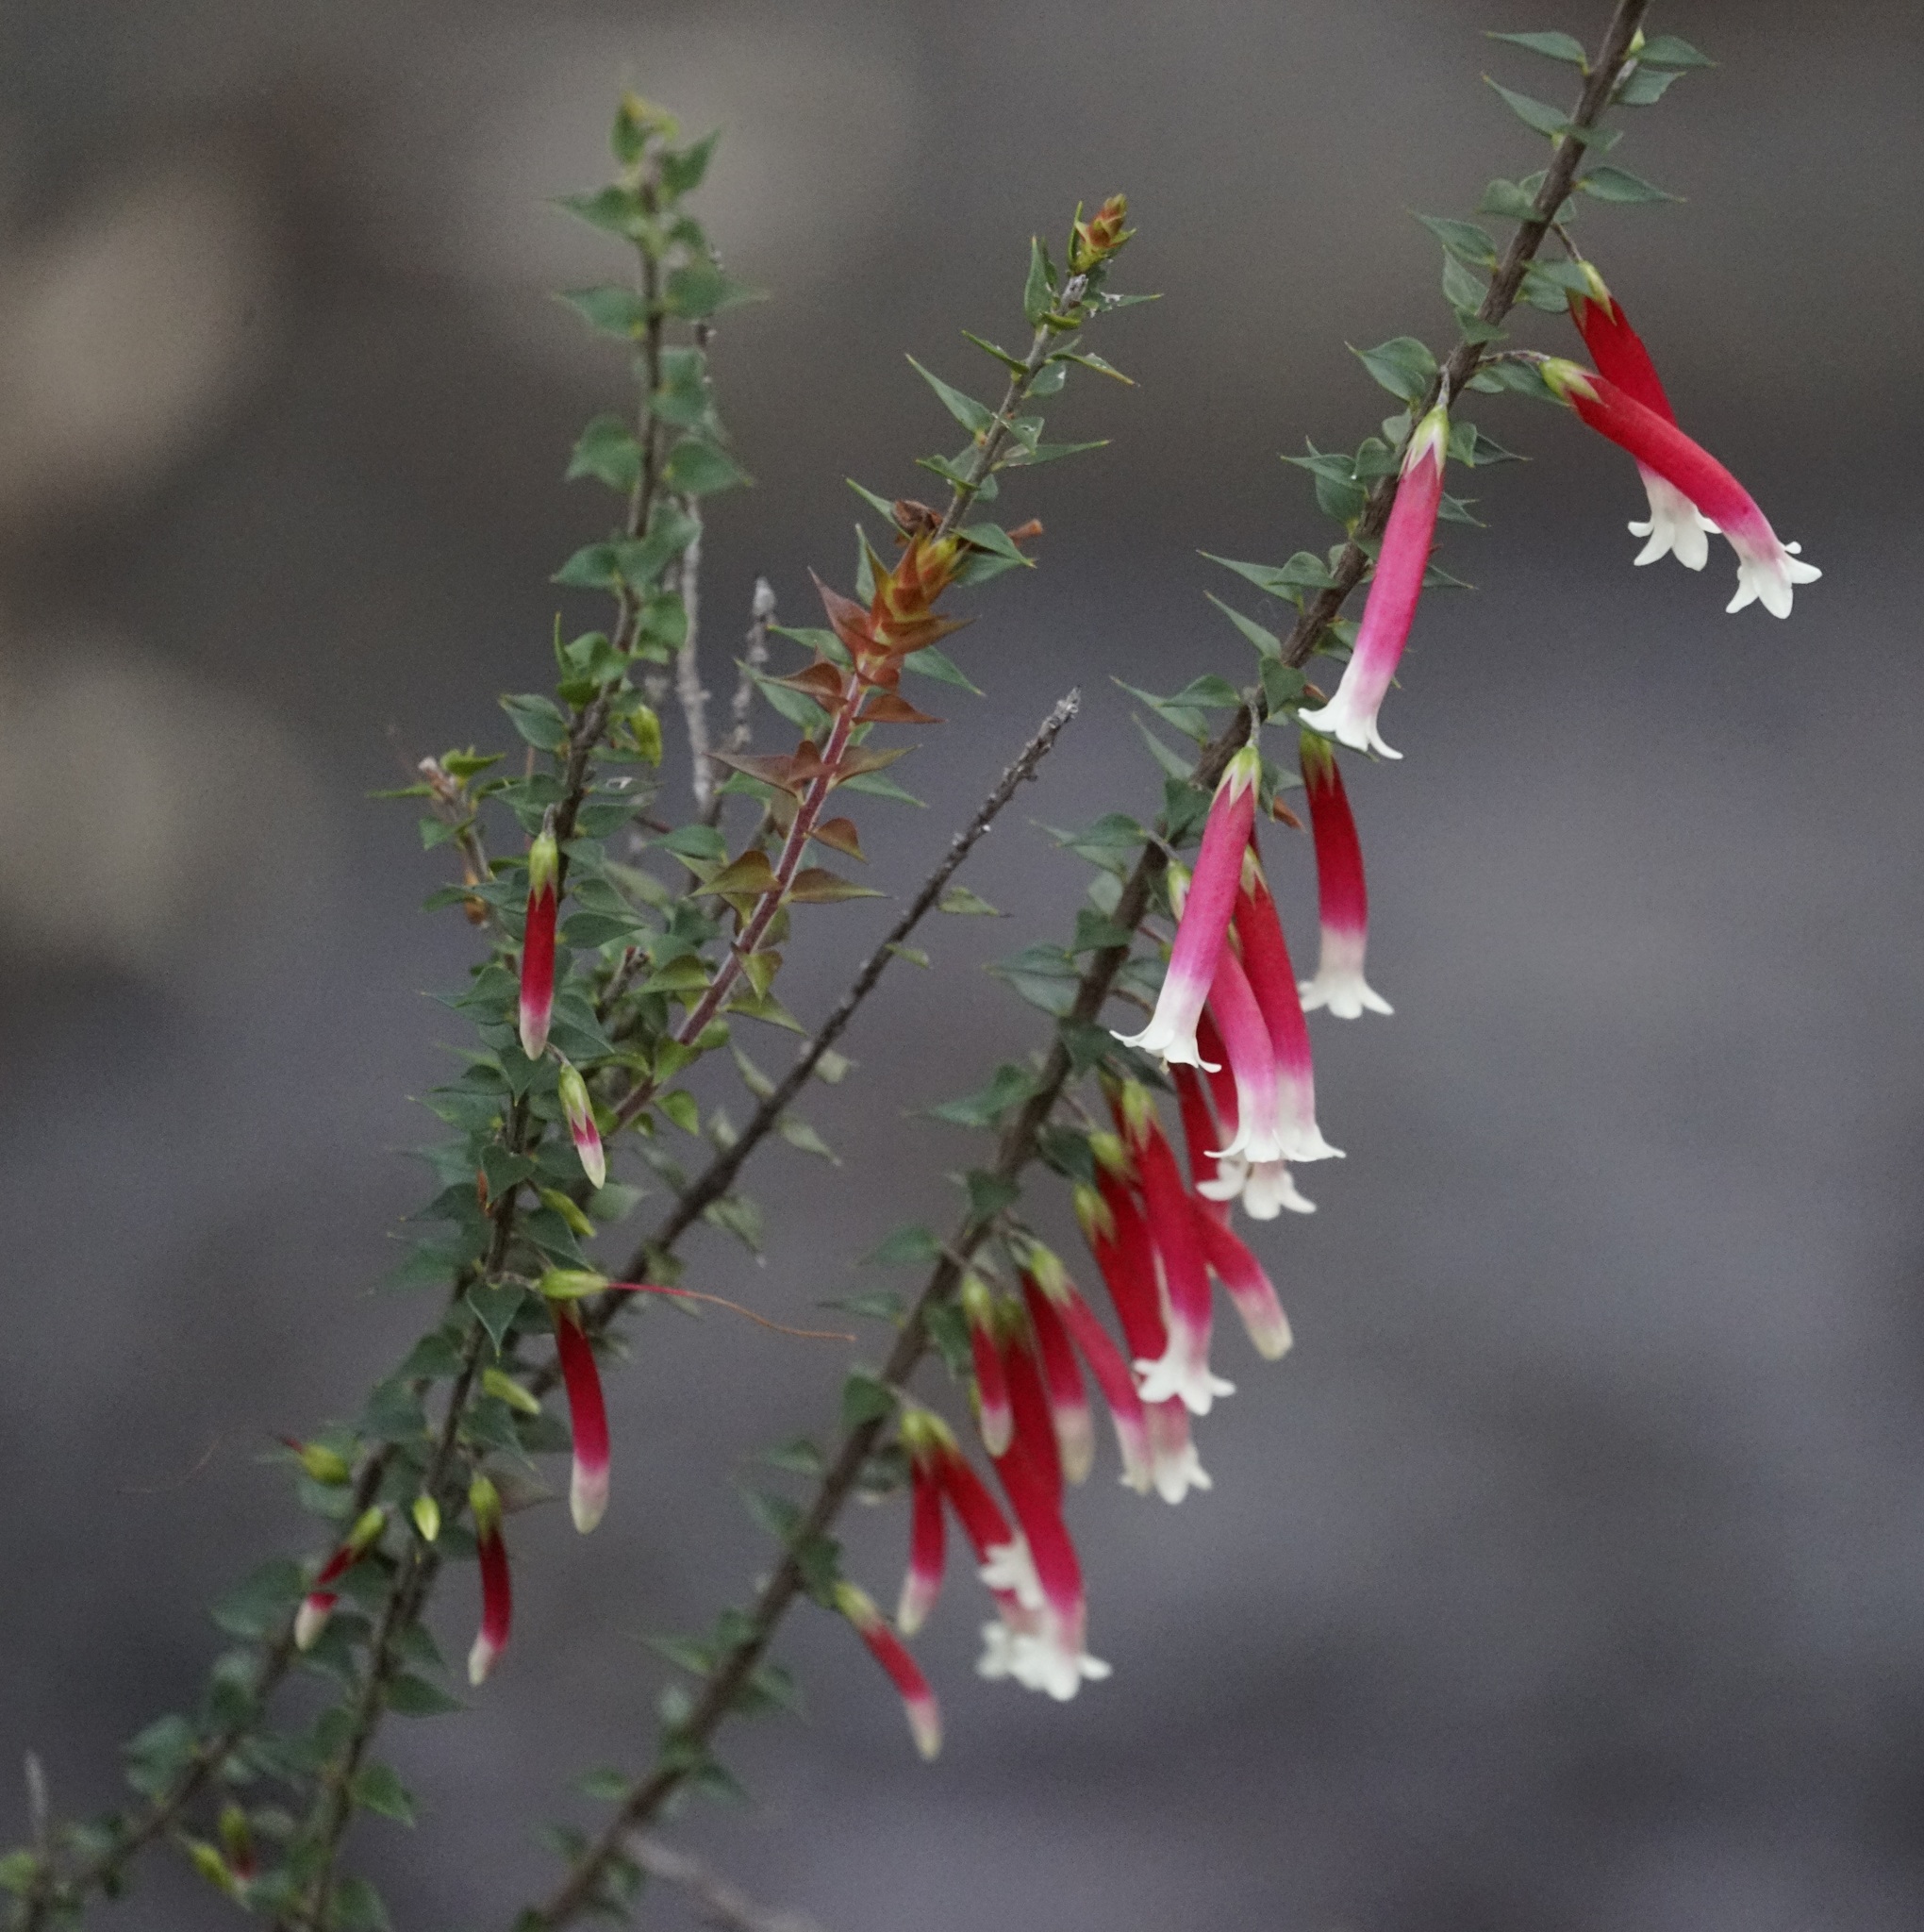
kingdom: Plantae
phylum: Tracheophyta
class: Magnoliopsida
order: Ericales
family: Ericaceae
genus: Epacris
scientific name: Epacris longiflora
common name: Fuchsia-heath
